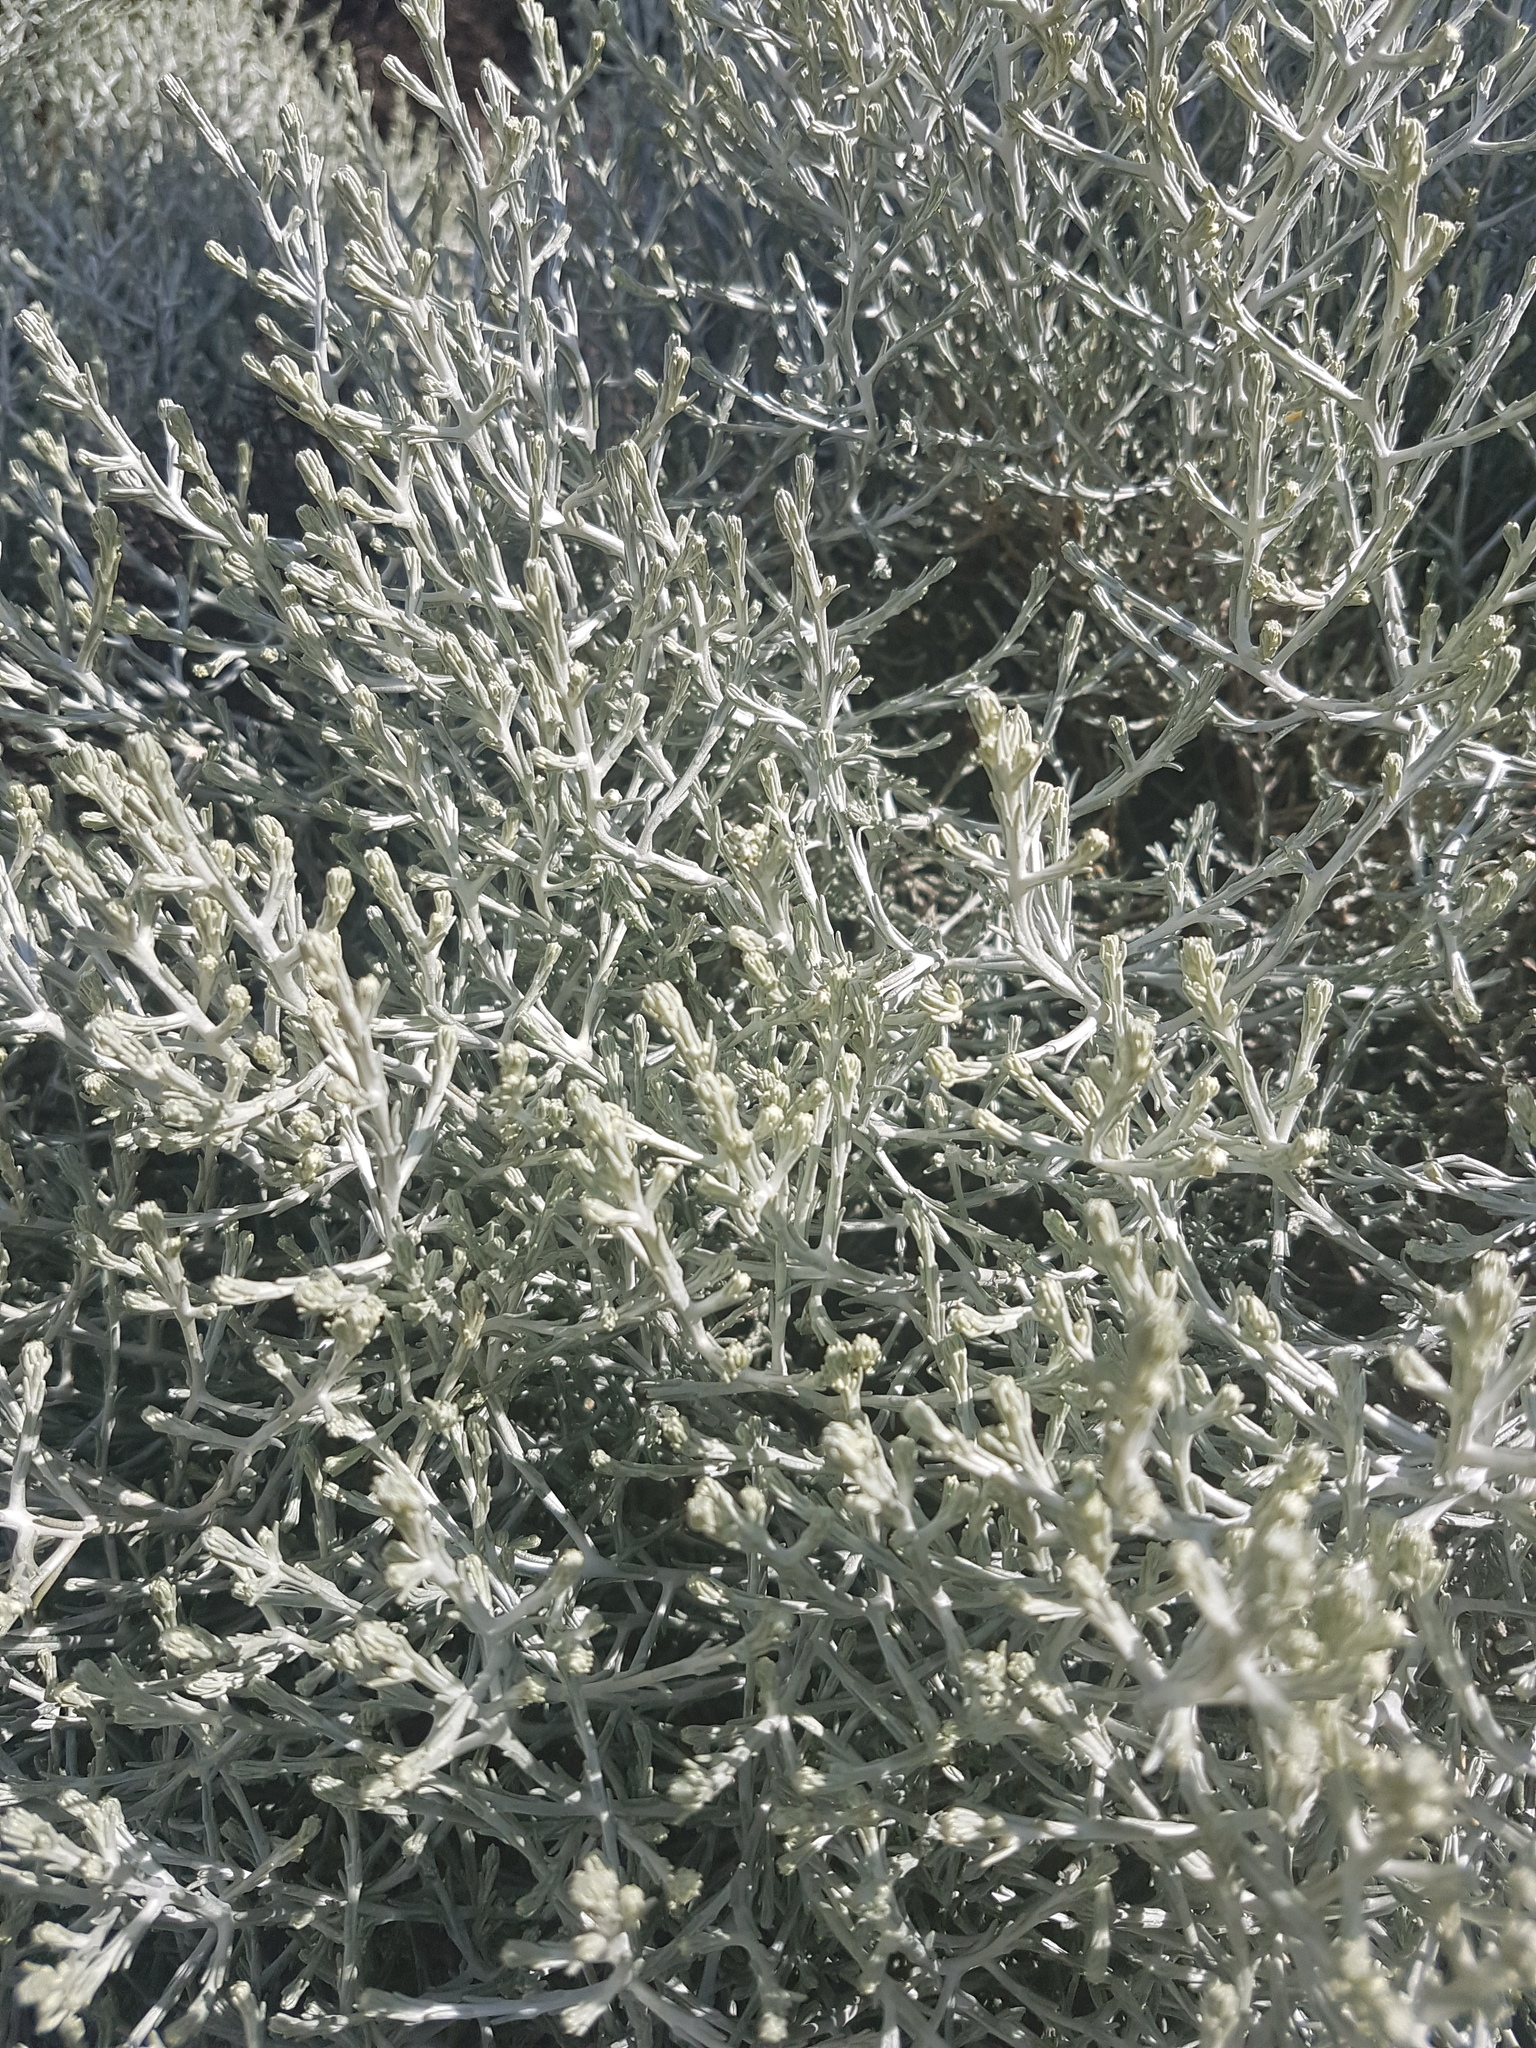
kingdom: Plantae
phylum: Tracheophyta
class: Magnoliopsida
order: Asterales
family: Asteraceae
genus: Calocephalus
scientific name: Calocephalus brownii
